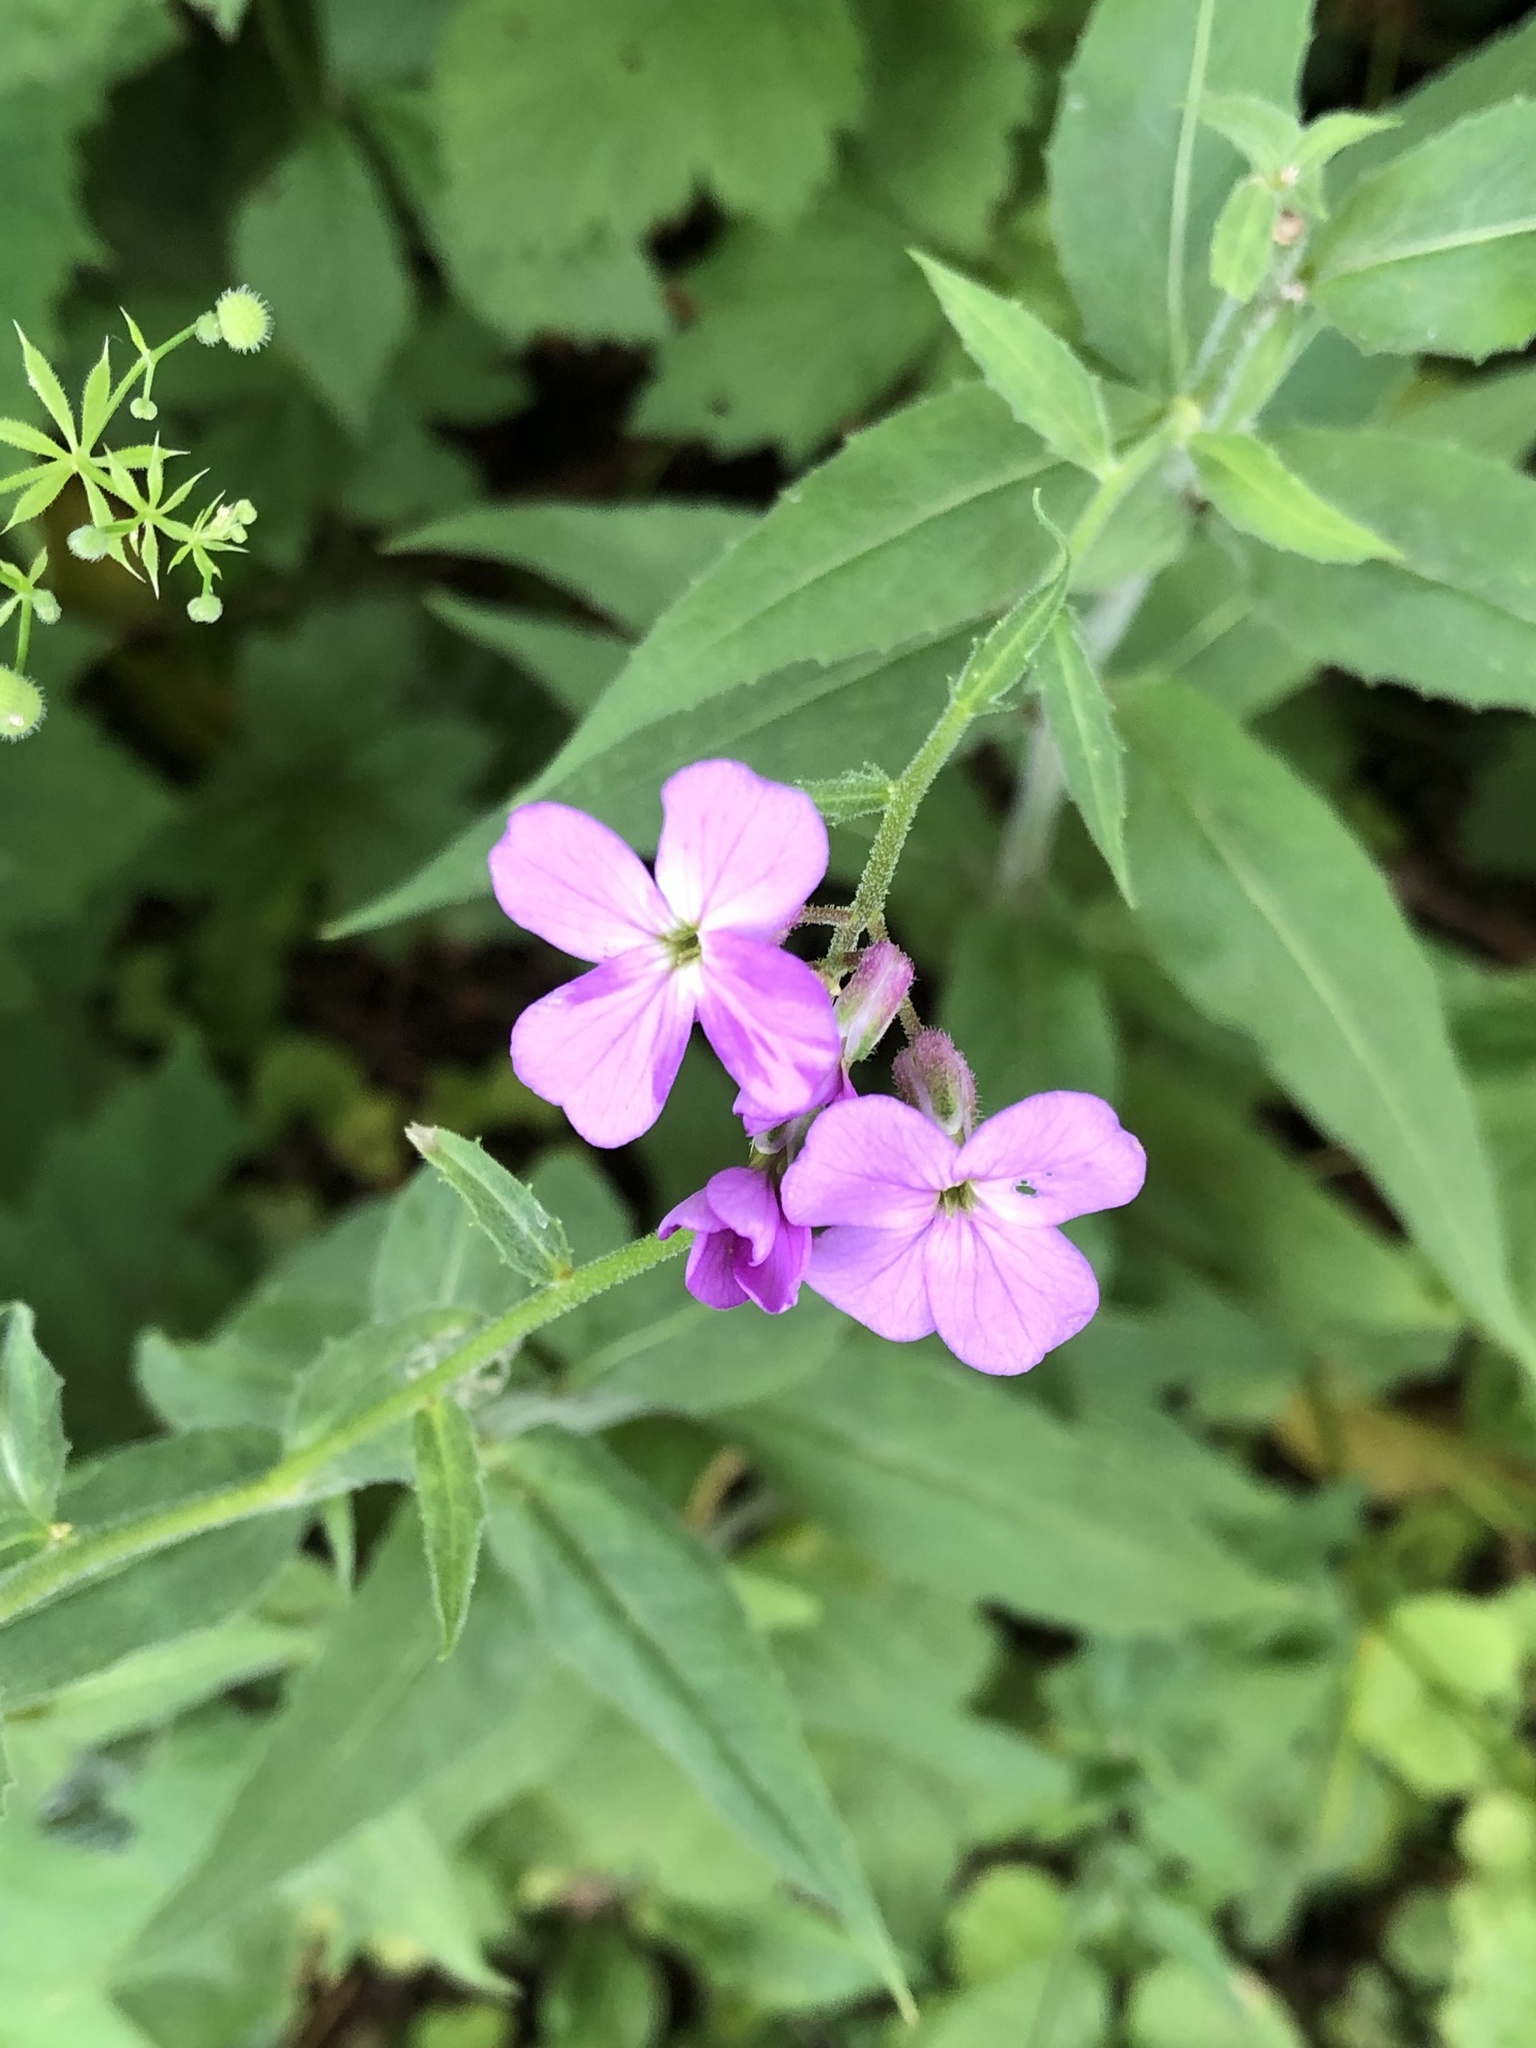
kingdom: Plantae
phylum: Tracheophyta
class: Magnoliopsida
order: Brassicales
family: Brassicaceae
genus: Hesperis
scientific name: Hesperis matronalis
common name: Dame's-violet
